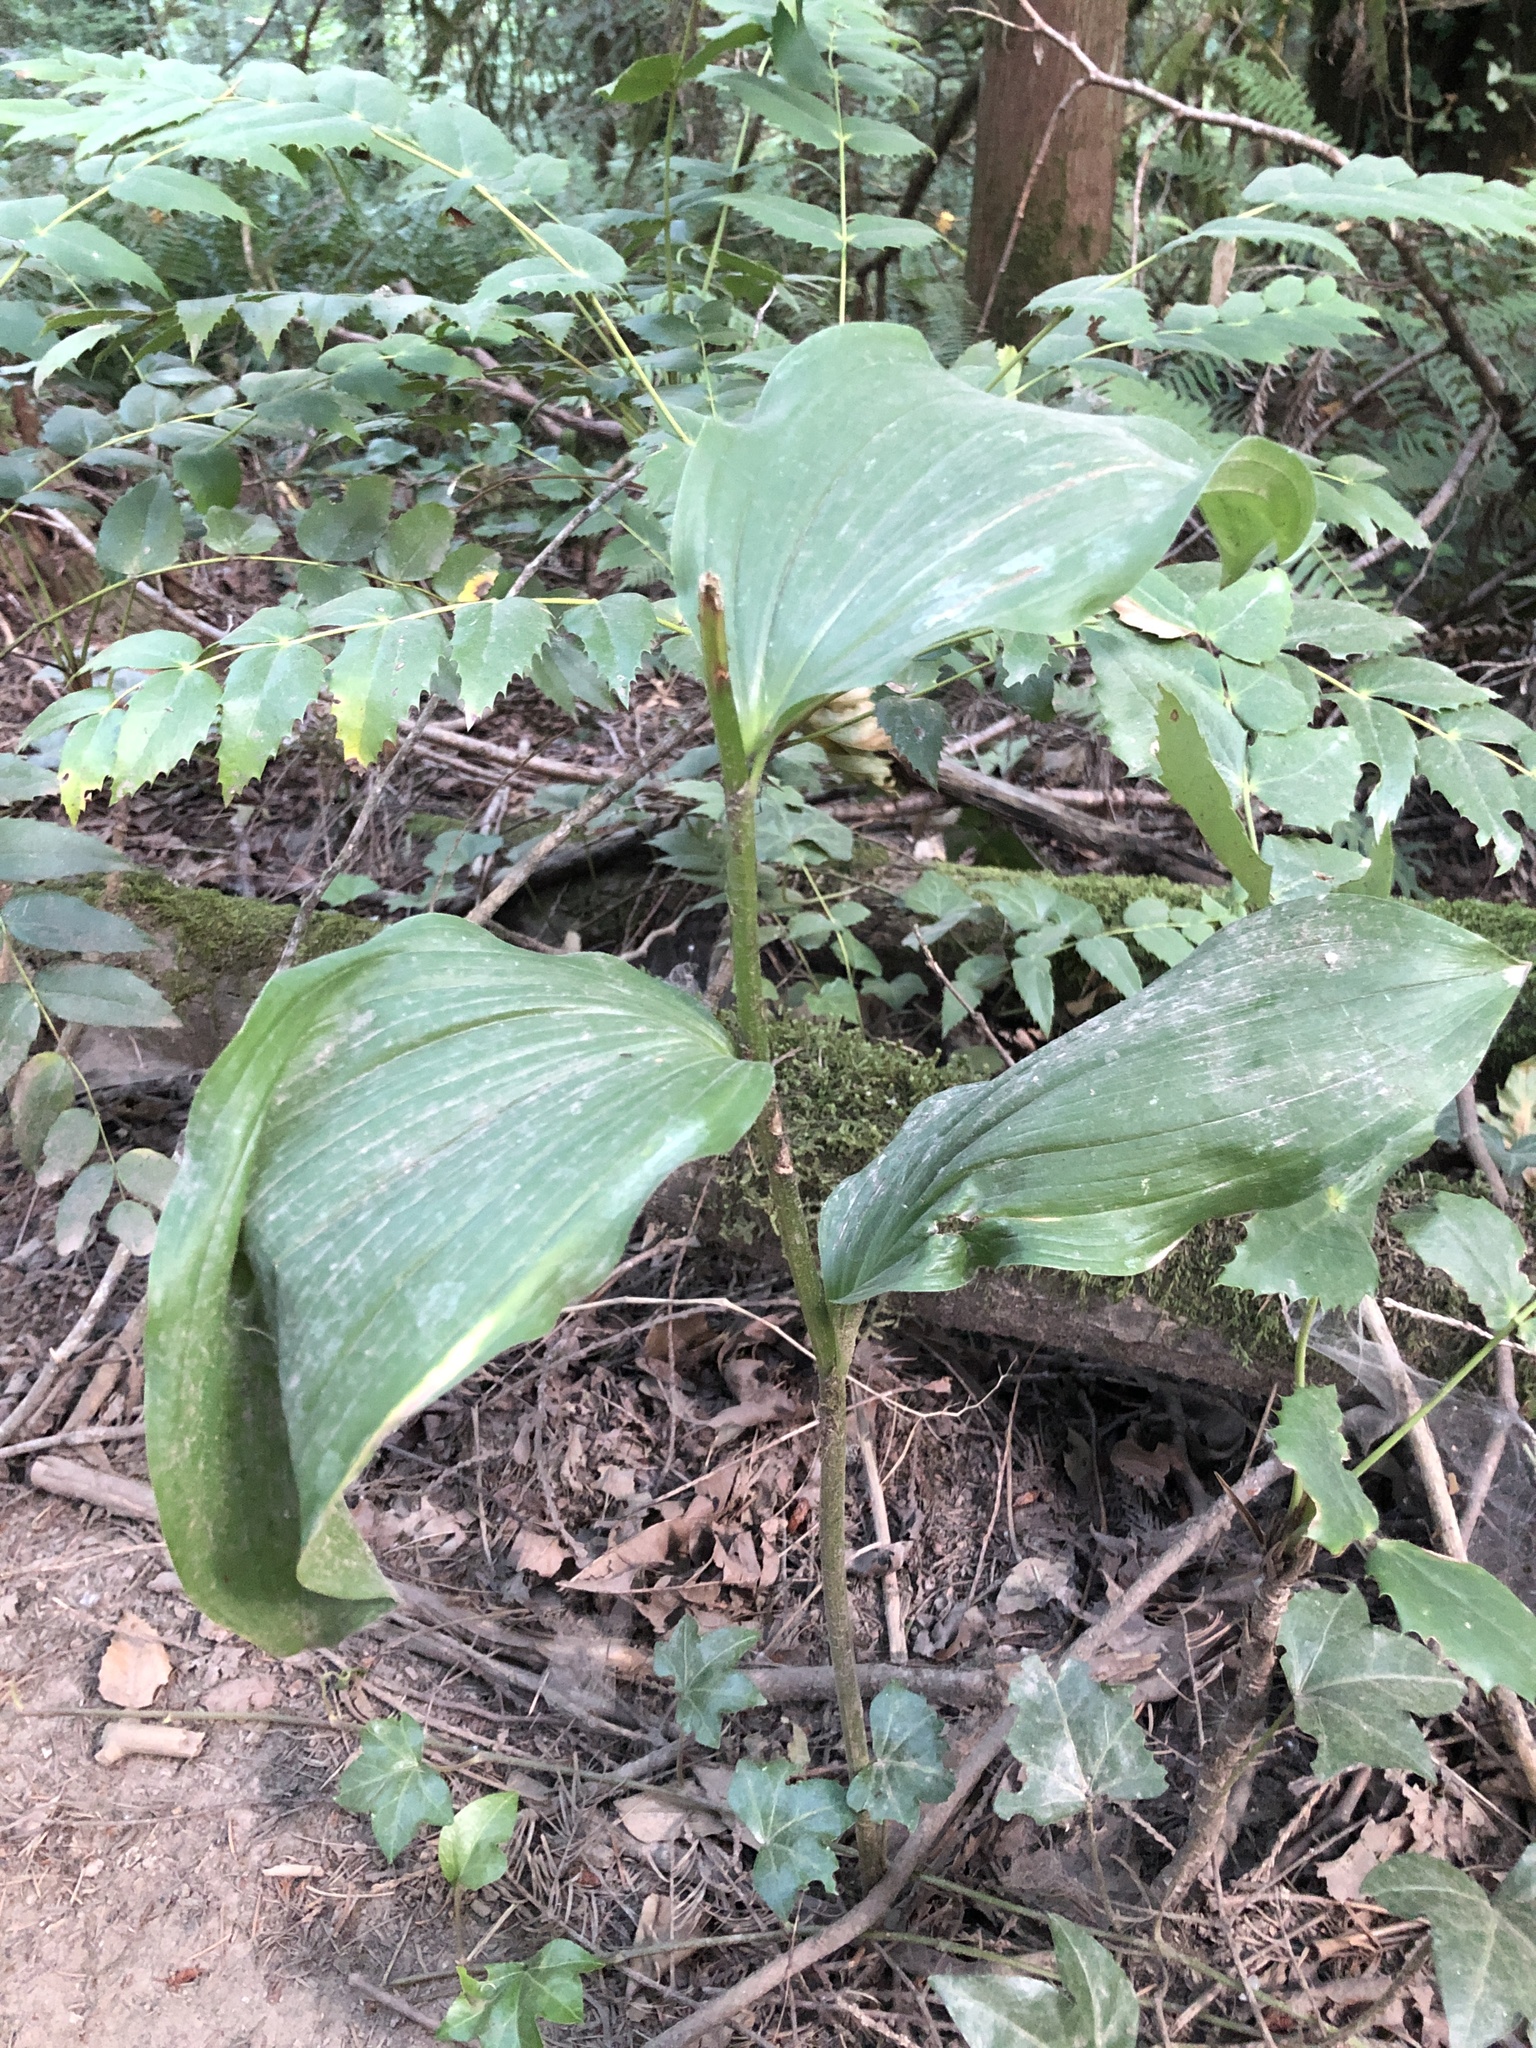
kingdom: Plantae
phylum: Tracheophyta
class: Liliopsida
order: Asparagales
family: Asparagaceae
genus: Maianthemum
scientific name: Maianthemum racemosum
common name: False spikenard
